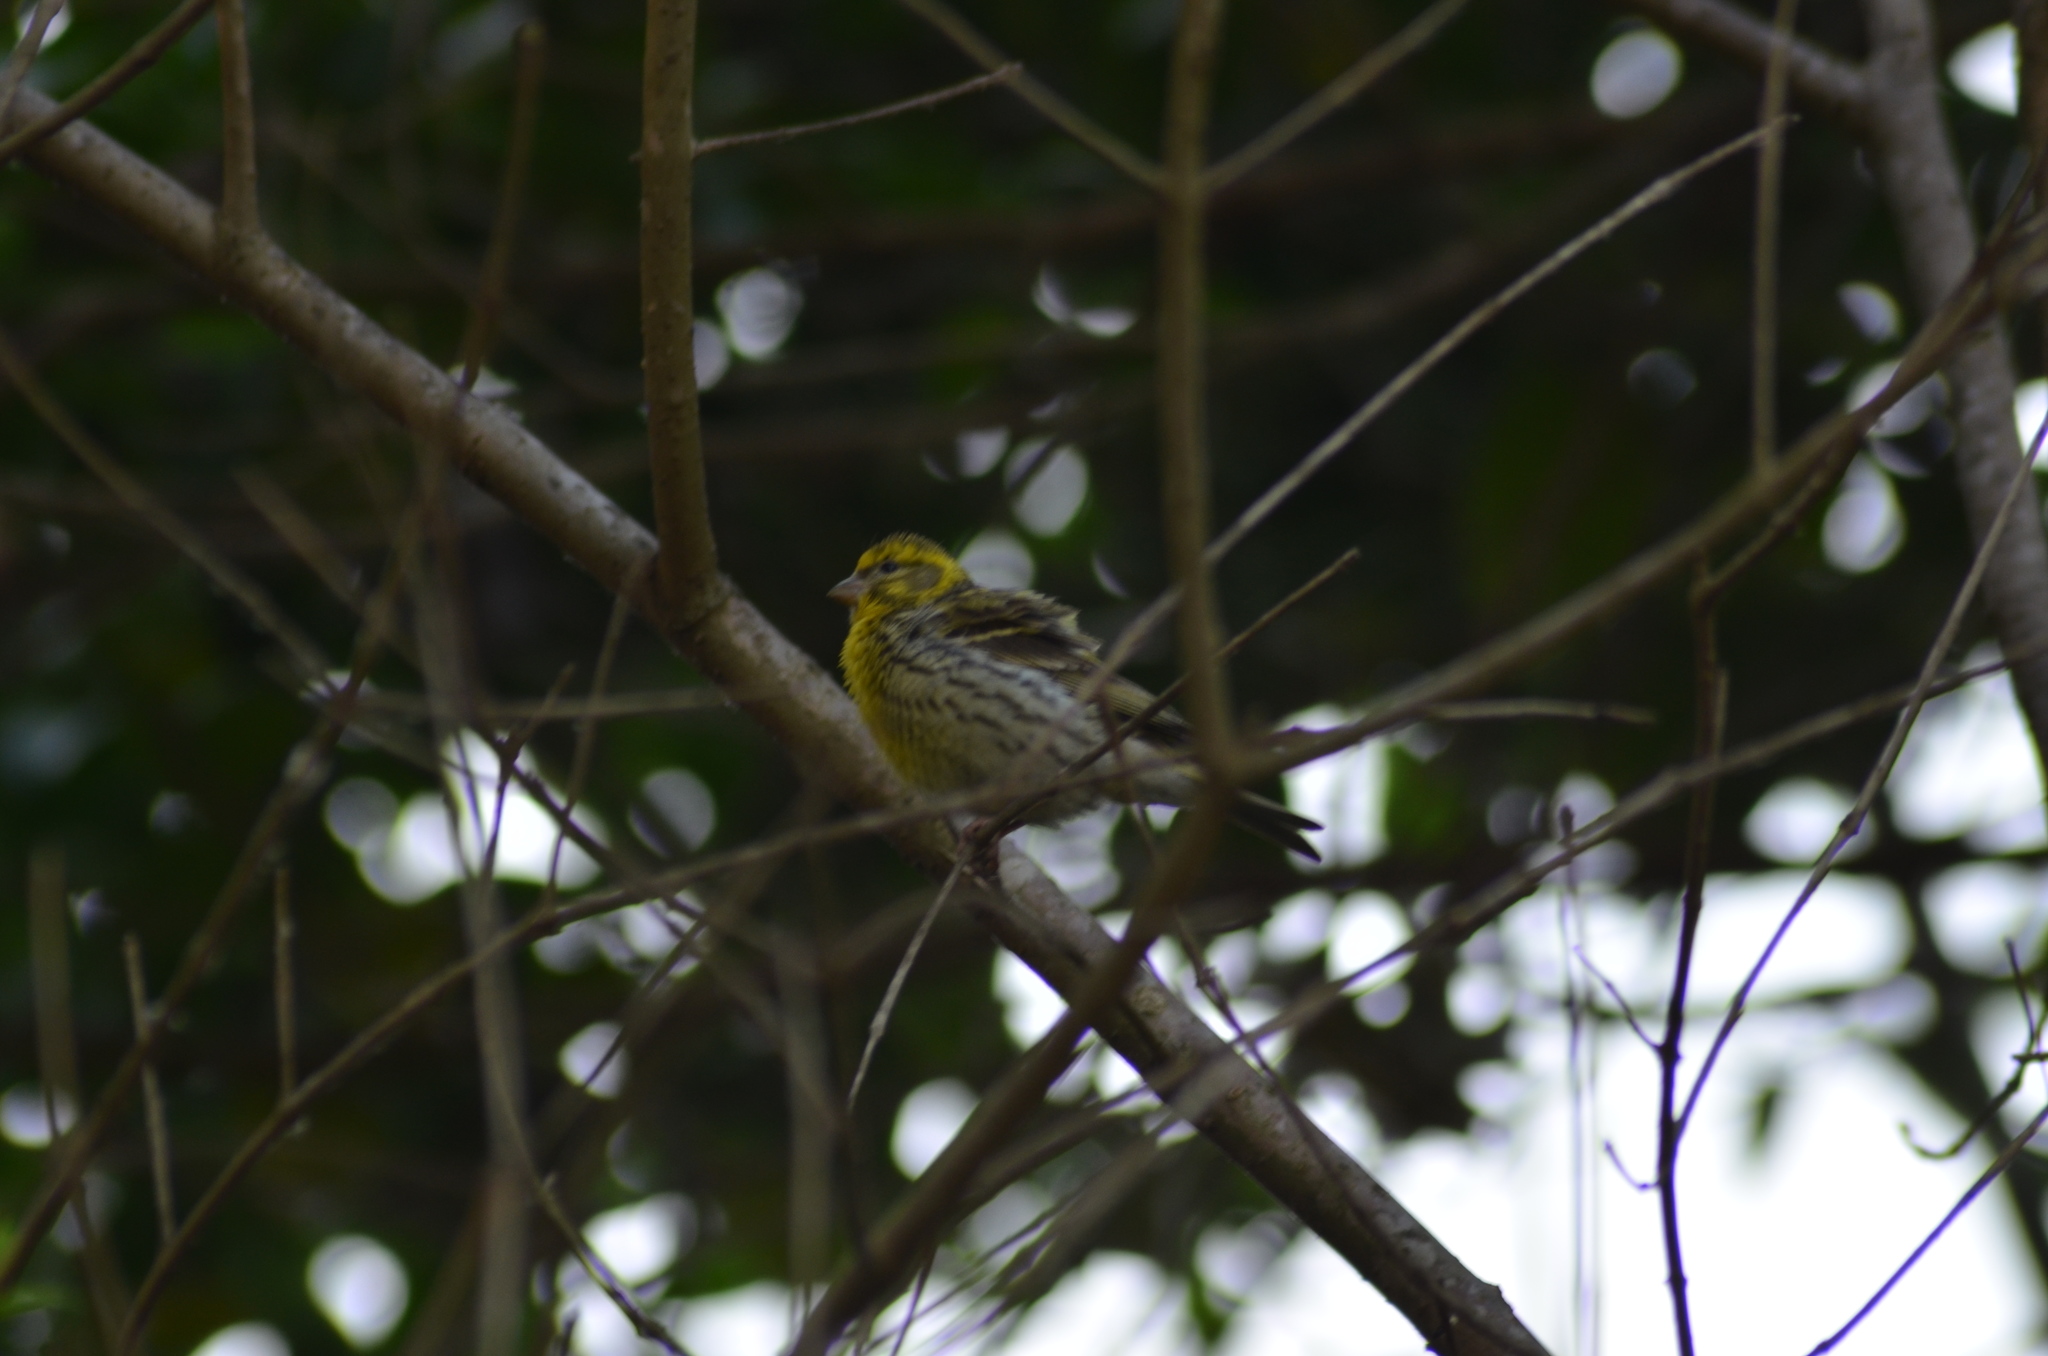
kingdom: Animalia
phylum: Chordata
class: Aves
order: Passeriformes
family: Fringillidae
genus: Serinus
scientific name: Serinus serinus
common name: European serin
